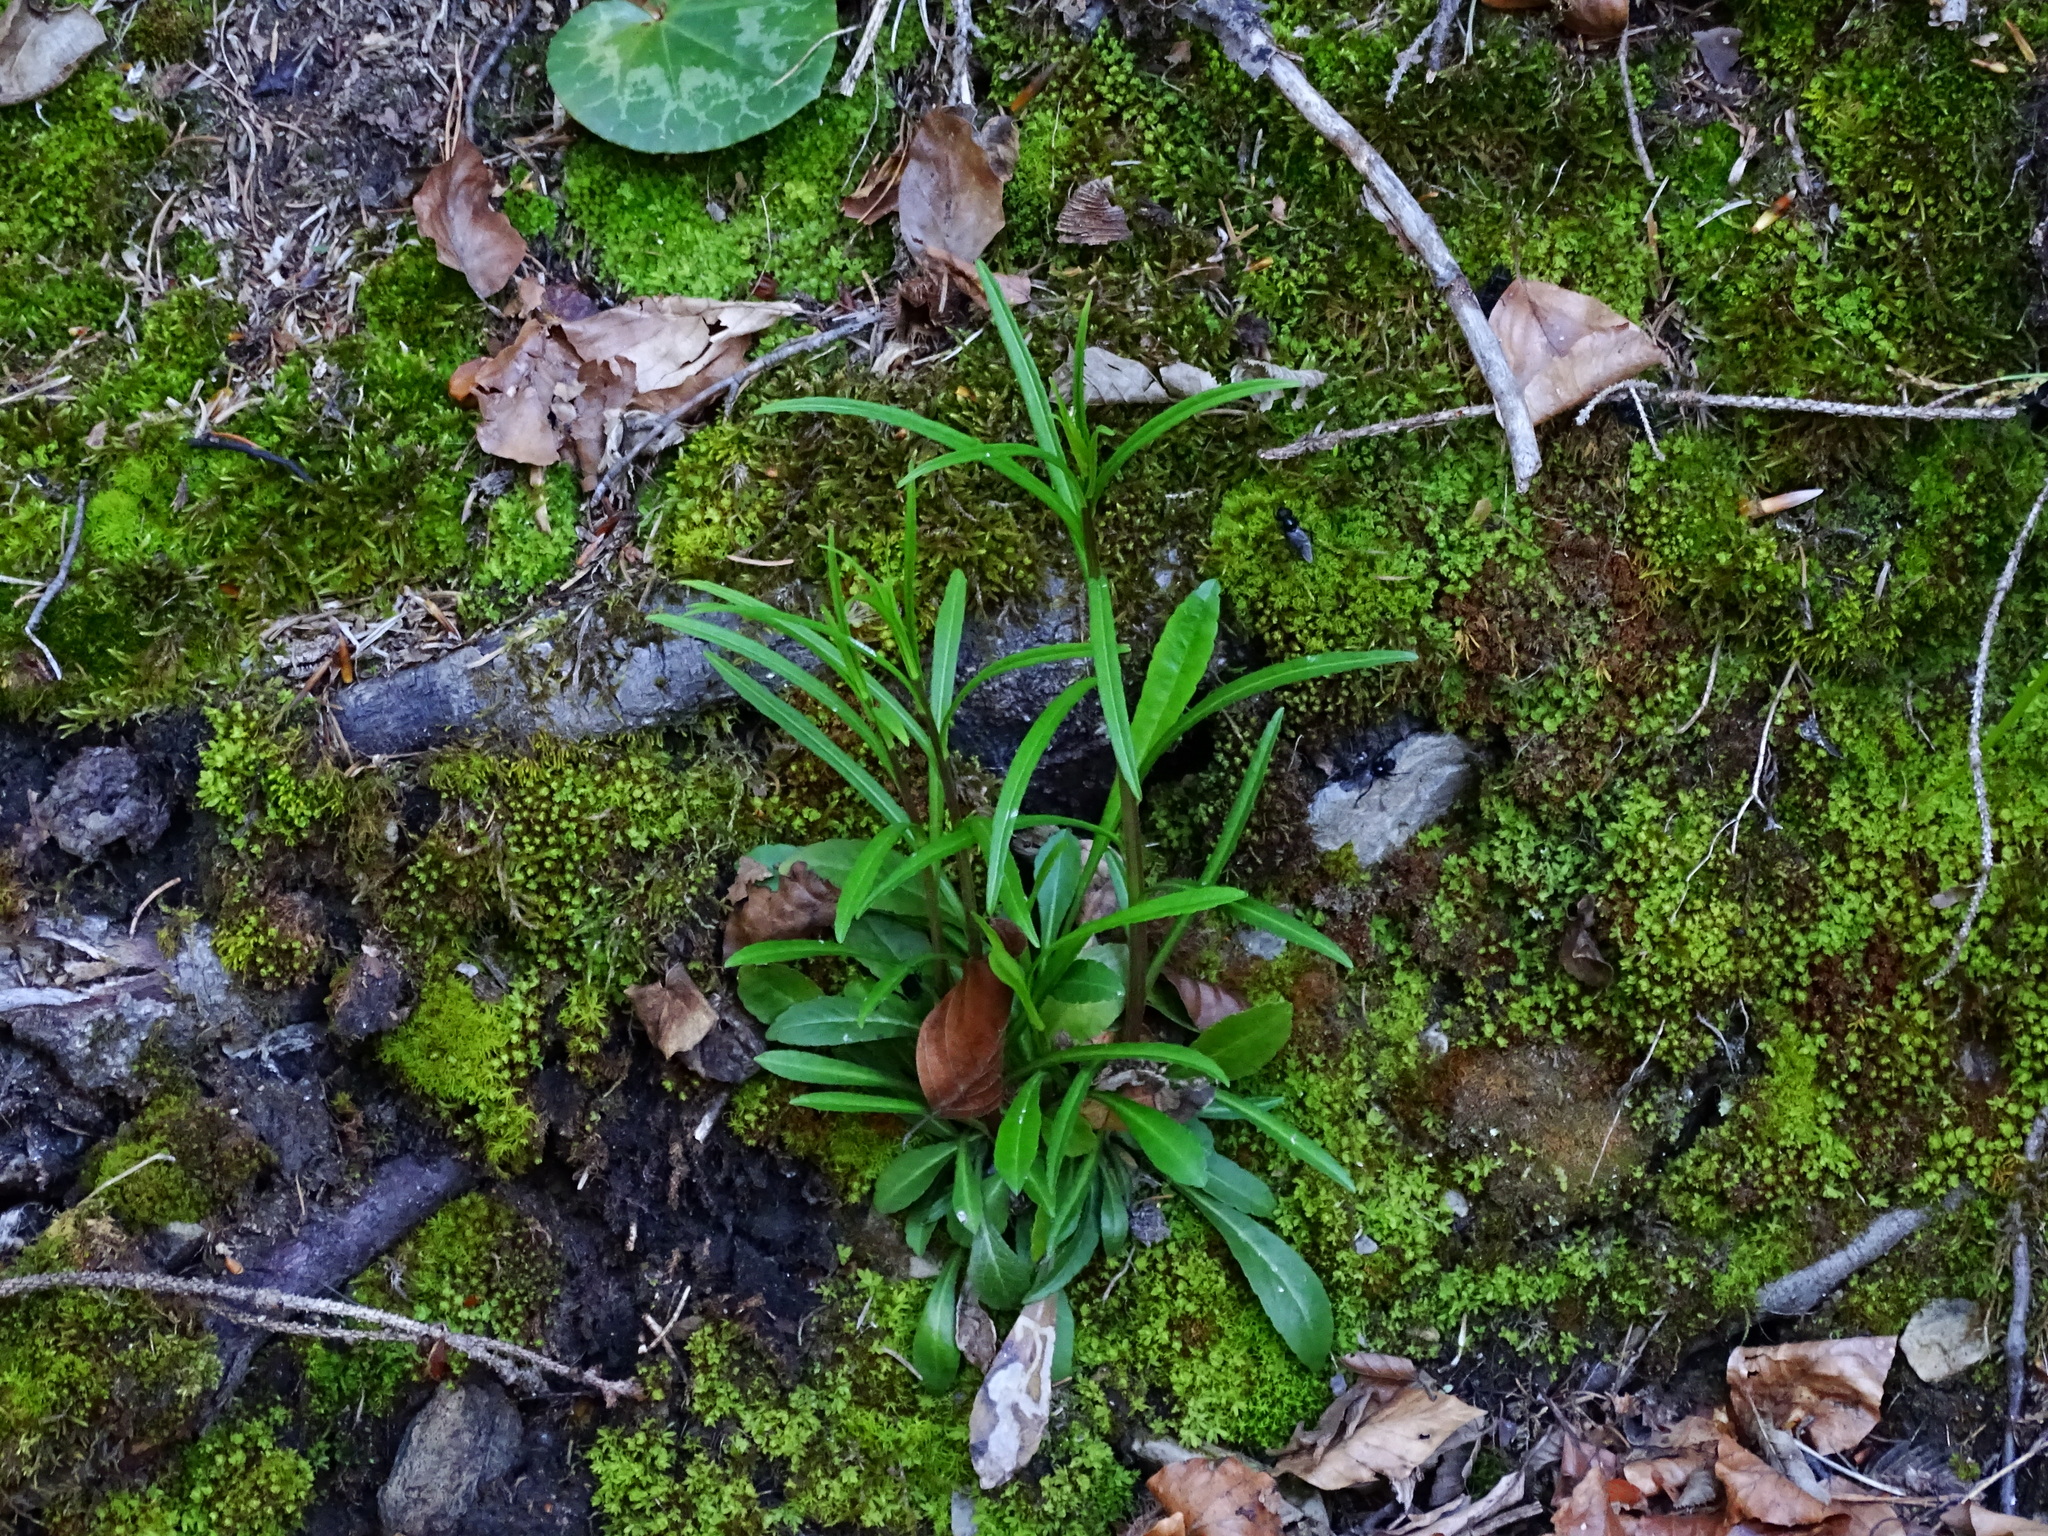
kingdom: Plantae
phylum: Tracheophyta
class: Magnoliopsida
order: Asterales
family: Campanulaceae
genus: Campanula
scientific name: Campanula persicifolia
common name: Peach-leaved bellflower
